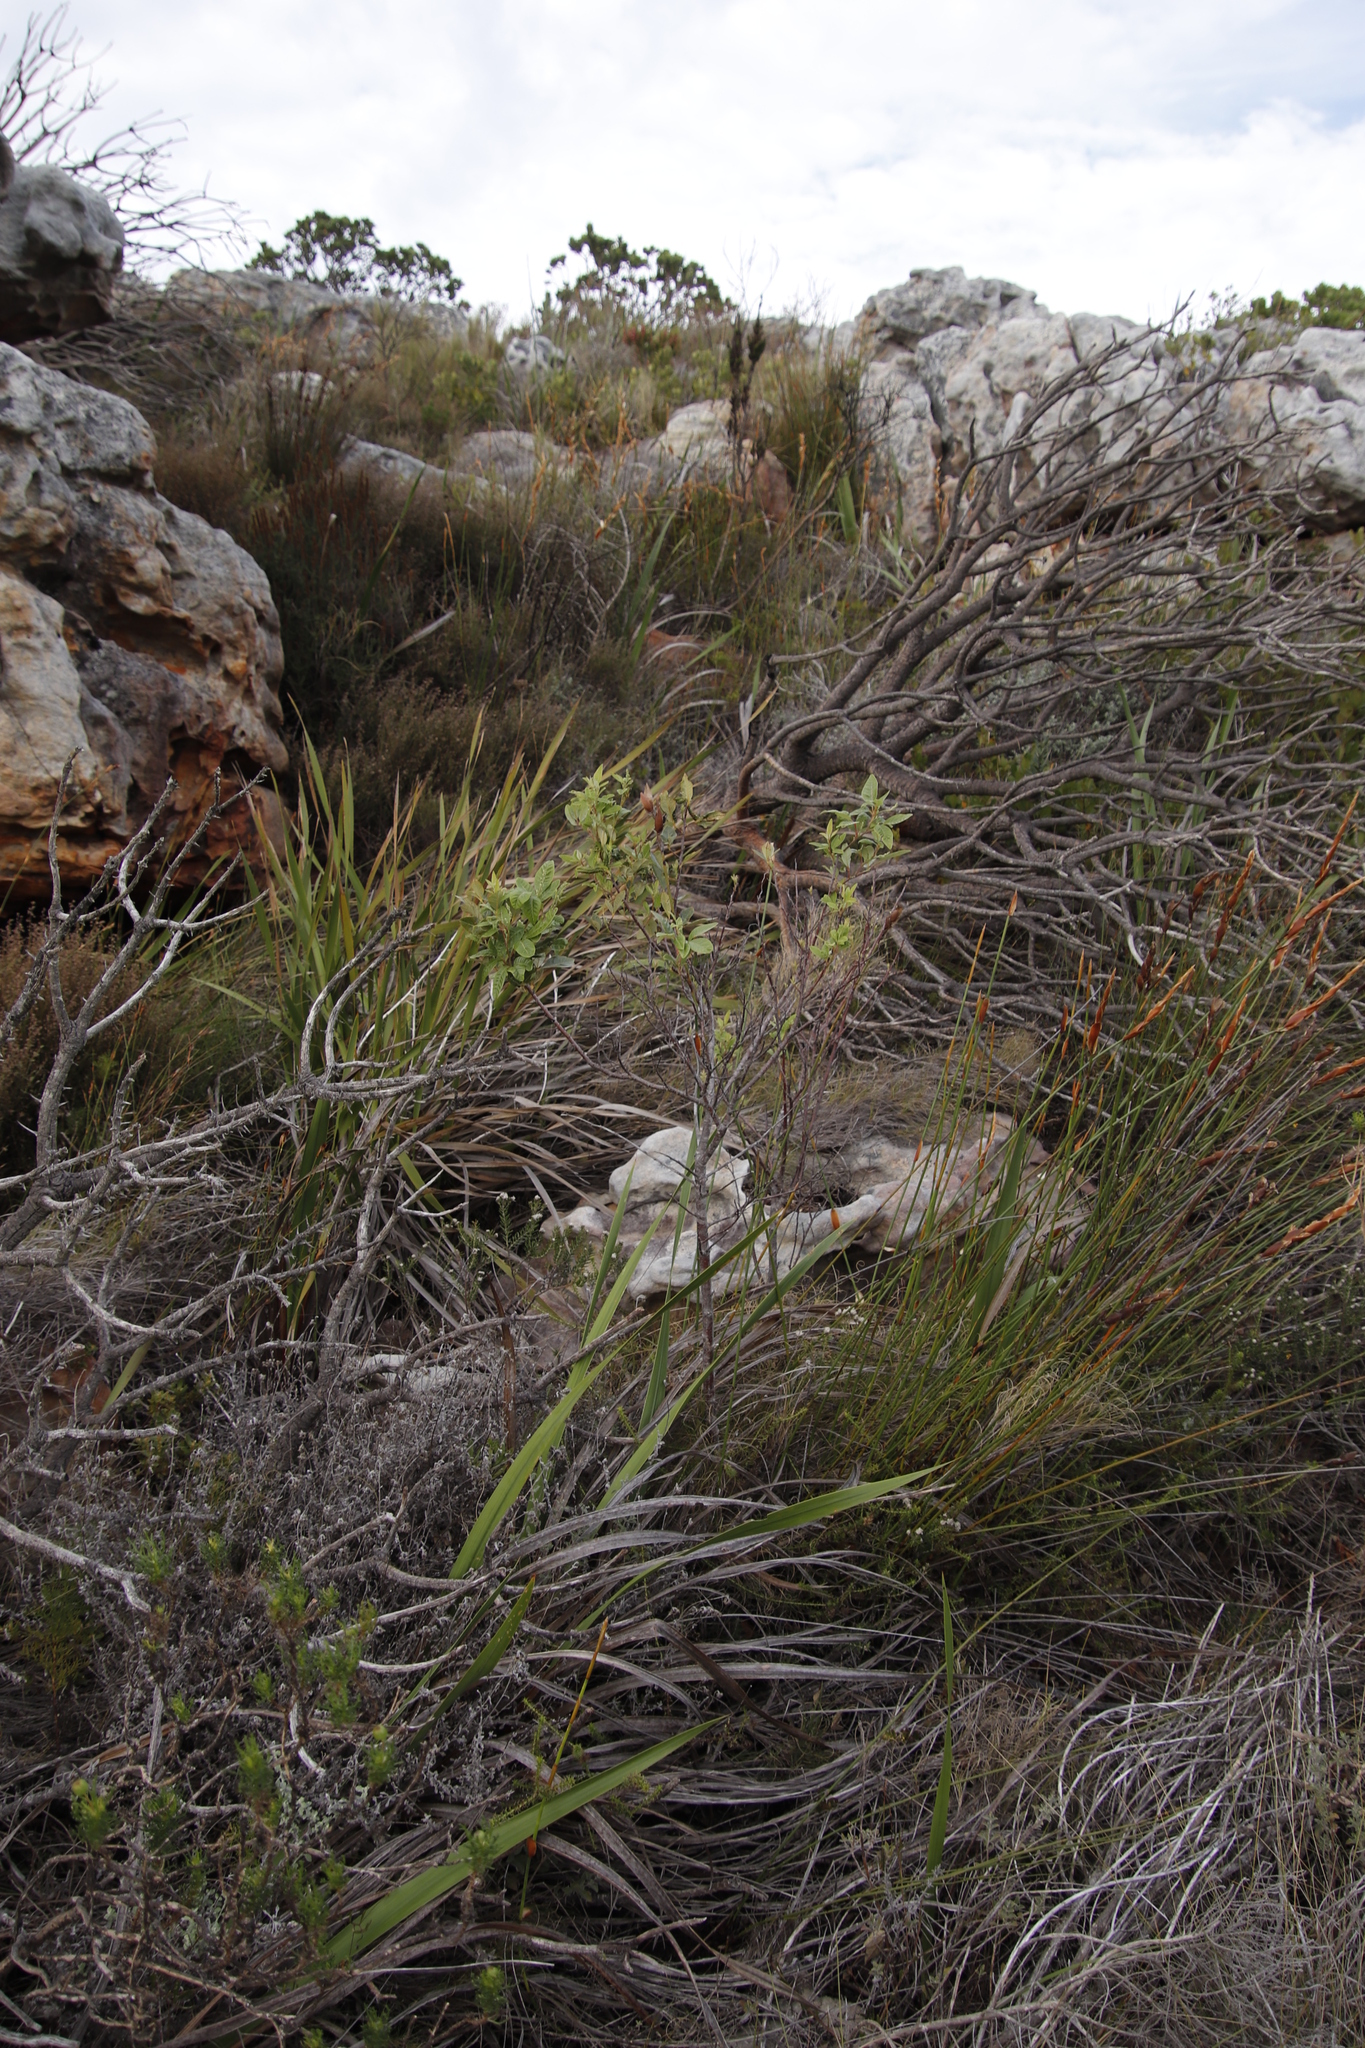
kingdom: Plantae
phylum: Tracheophyta
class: Magnoliopsida
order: Sapindales
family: Anacardiaceae
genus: Searsia
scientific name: Searsia tomentosa
